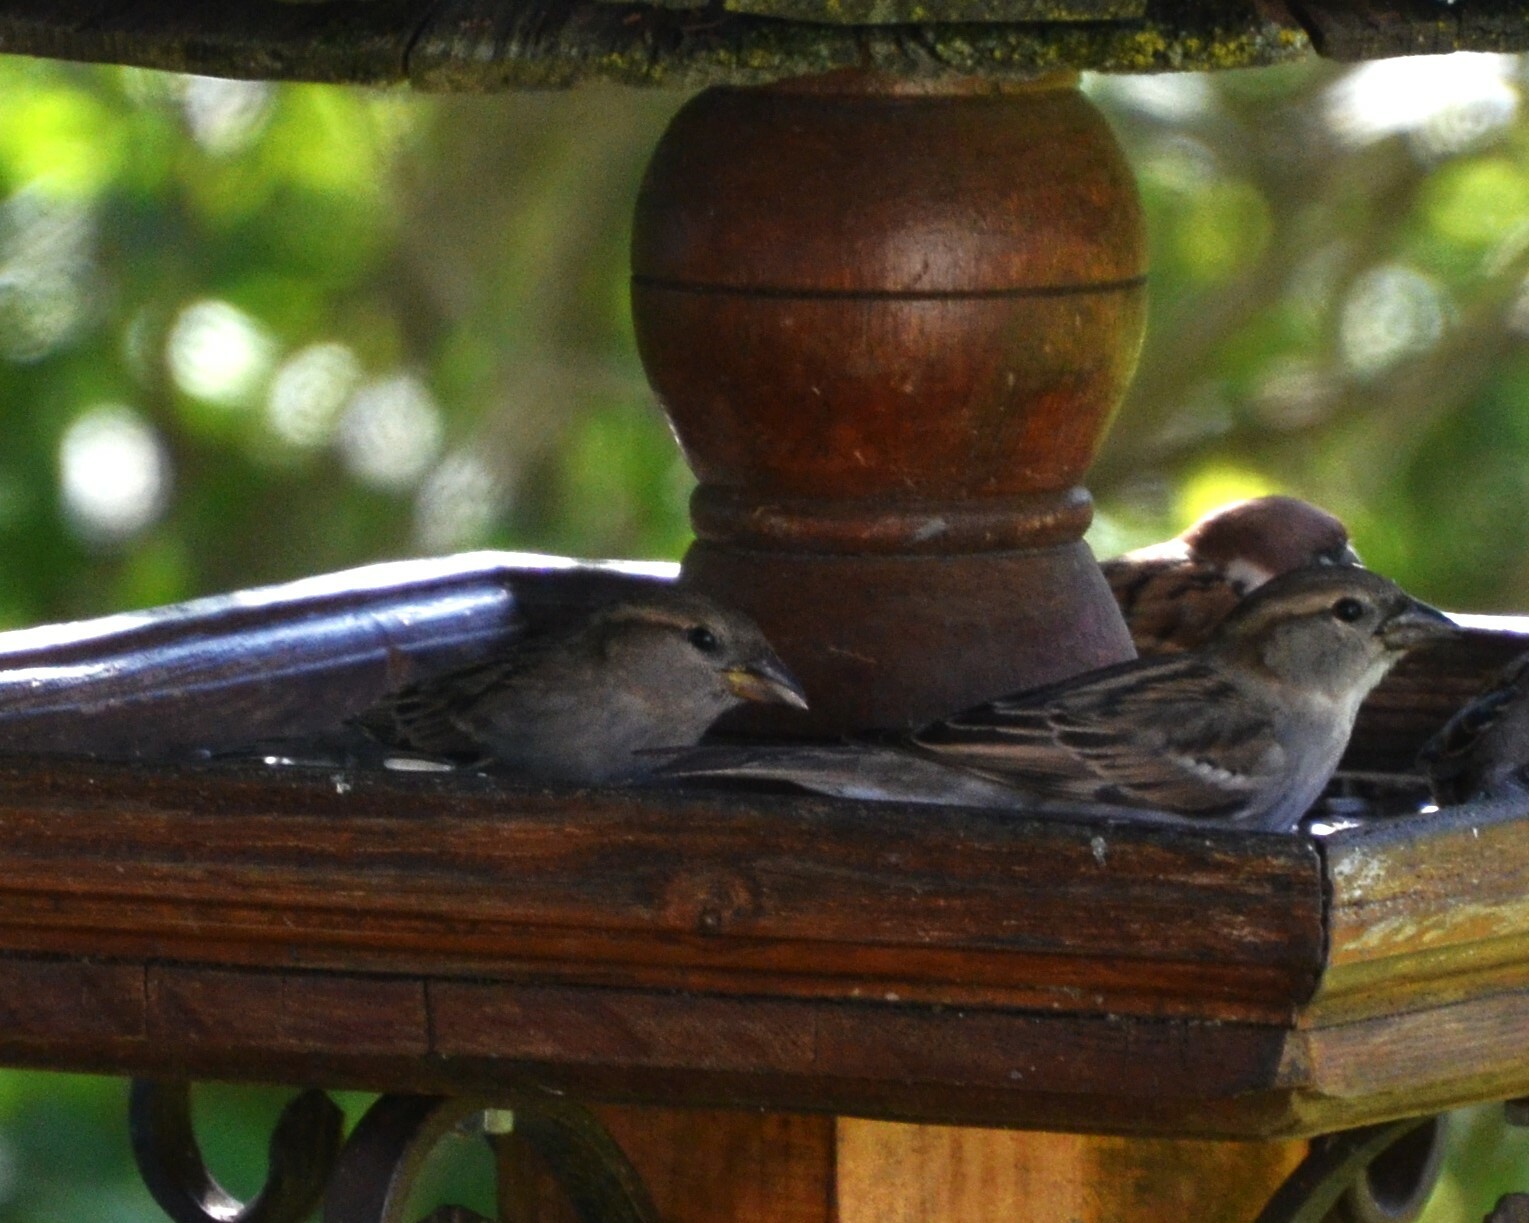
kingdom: Animalia
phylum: Chordata
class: Aves
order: Passeriformes
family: Passeridae
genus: Passer
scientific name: Passer domesticus
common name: House sparrow
